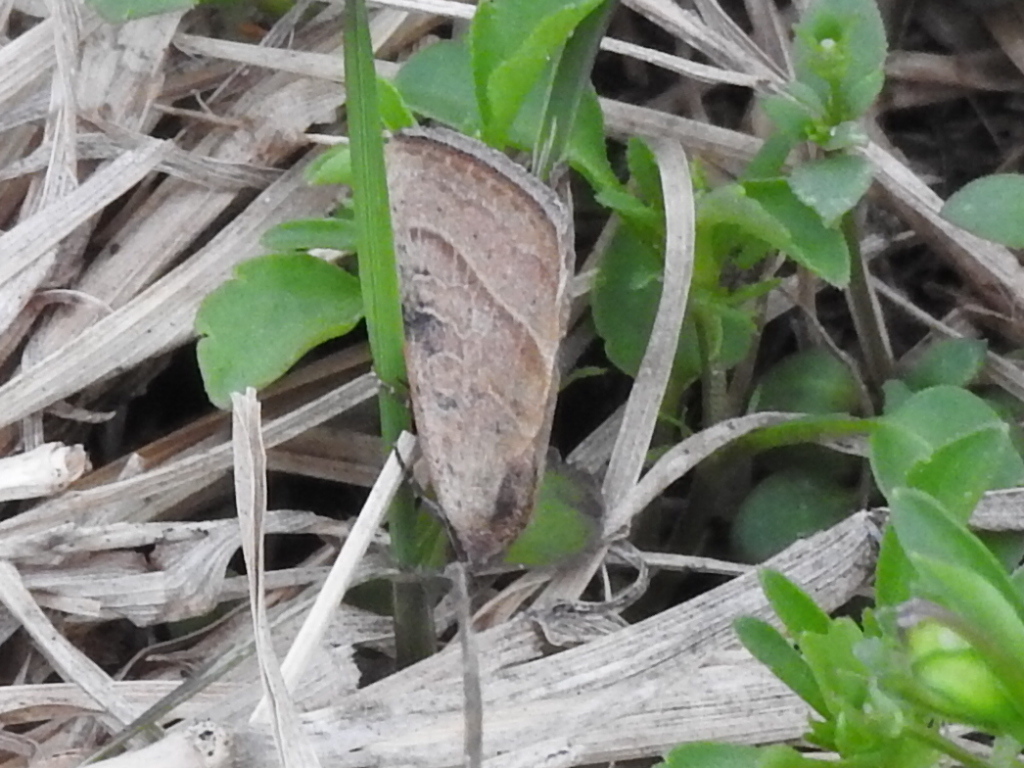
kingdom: Animalia
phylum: Arthropoda
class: Insecta
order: Lepidoptera
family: Noctuidae
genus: Galgula
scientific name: Galgula partita
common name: Wedgeling
